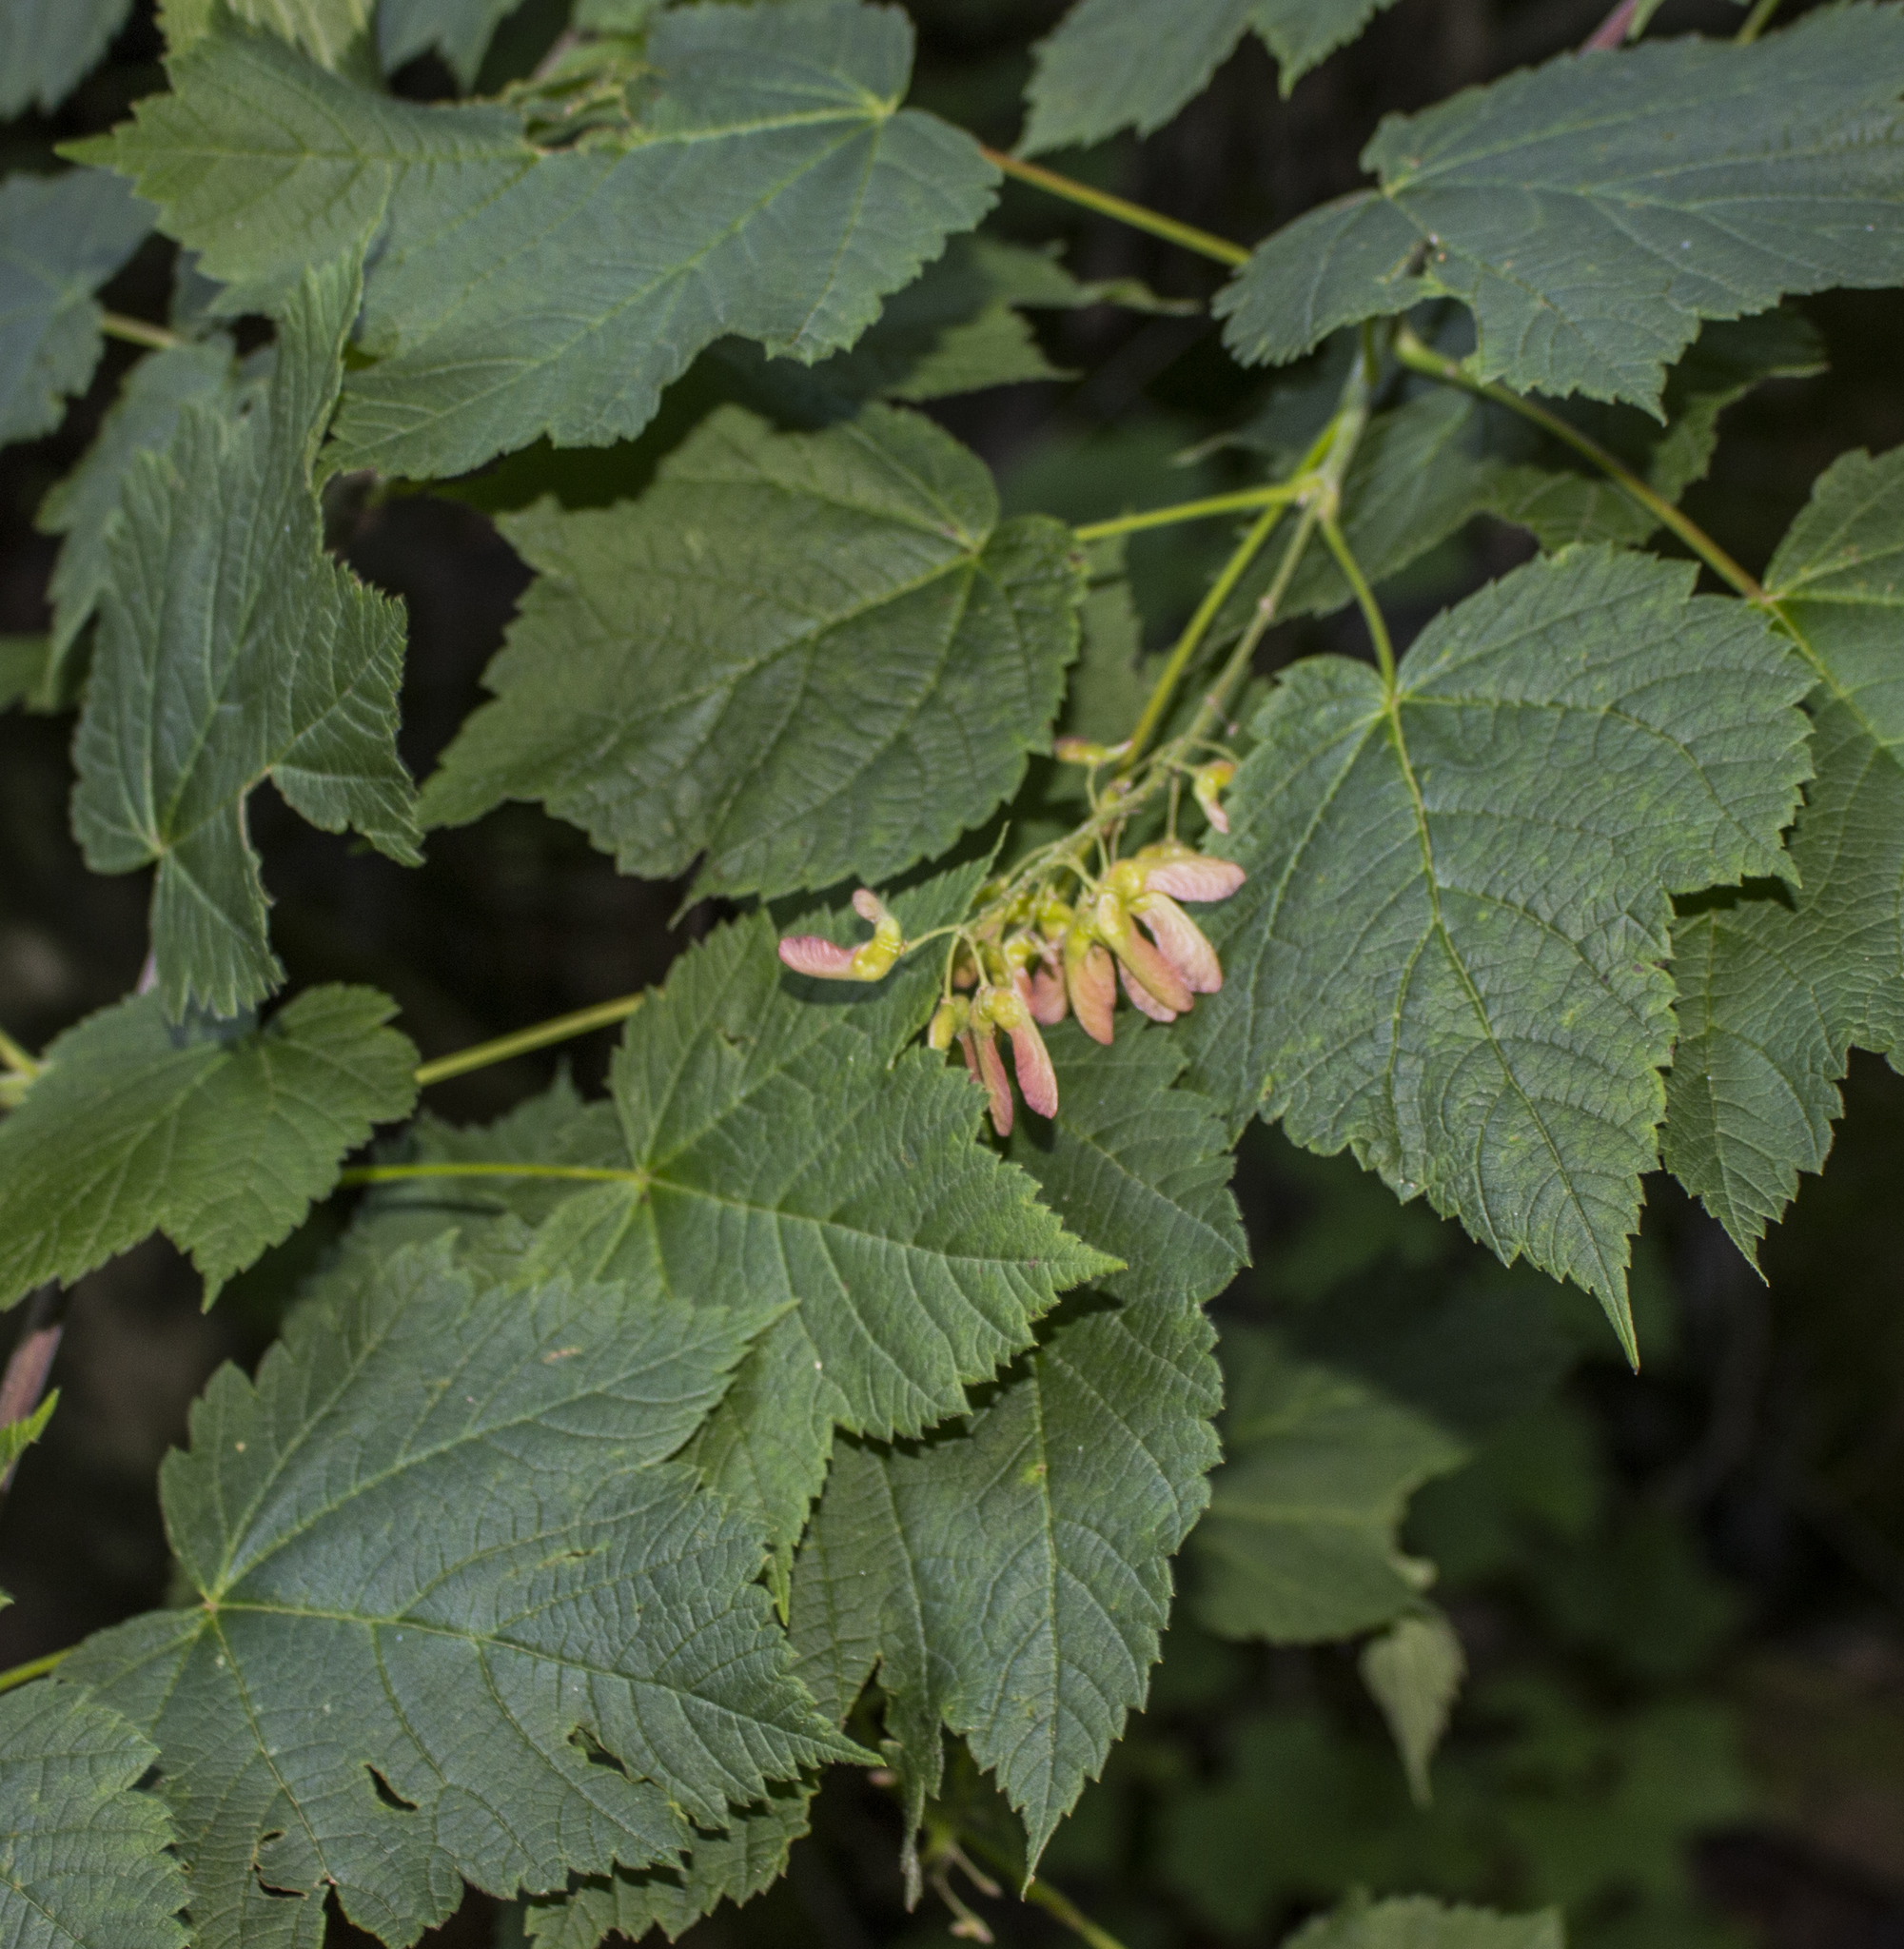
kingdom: Plantae
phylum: Tracheophyta
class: Magnoliopsida
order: Sapindales
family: Sapindaceae
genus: Acer
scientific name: Acer spicatum
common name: Mountain maple
